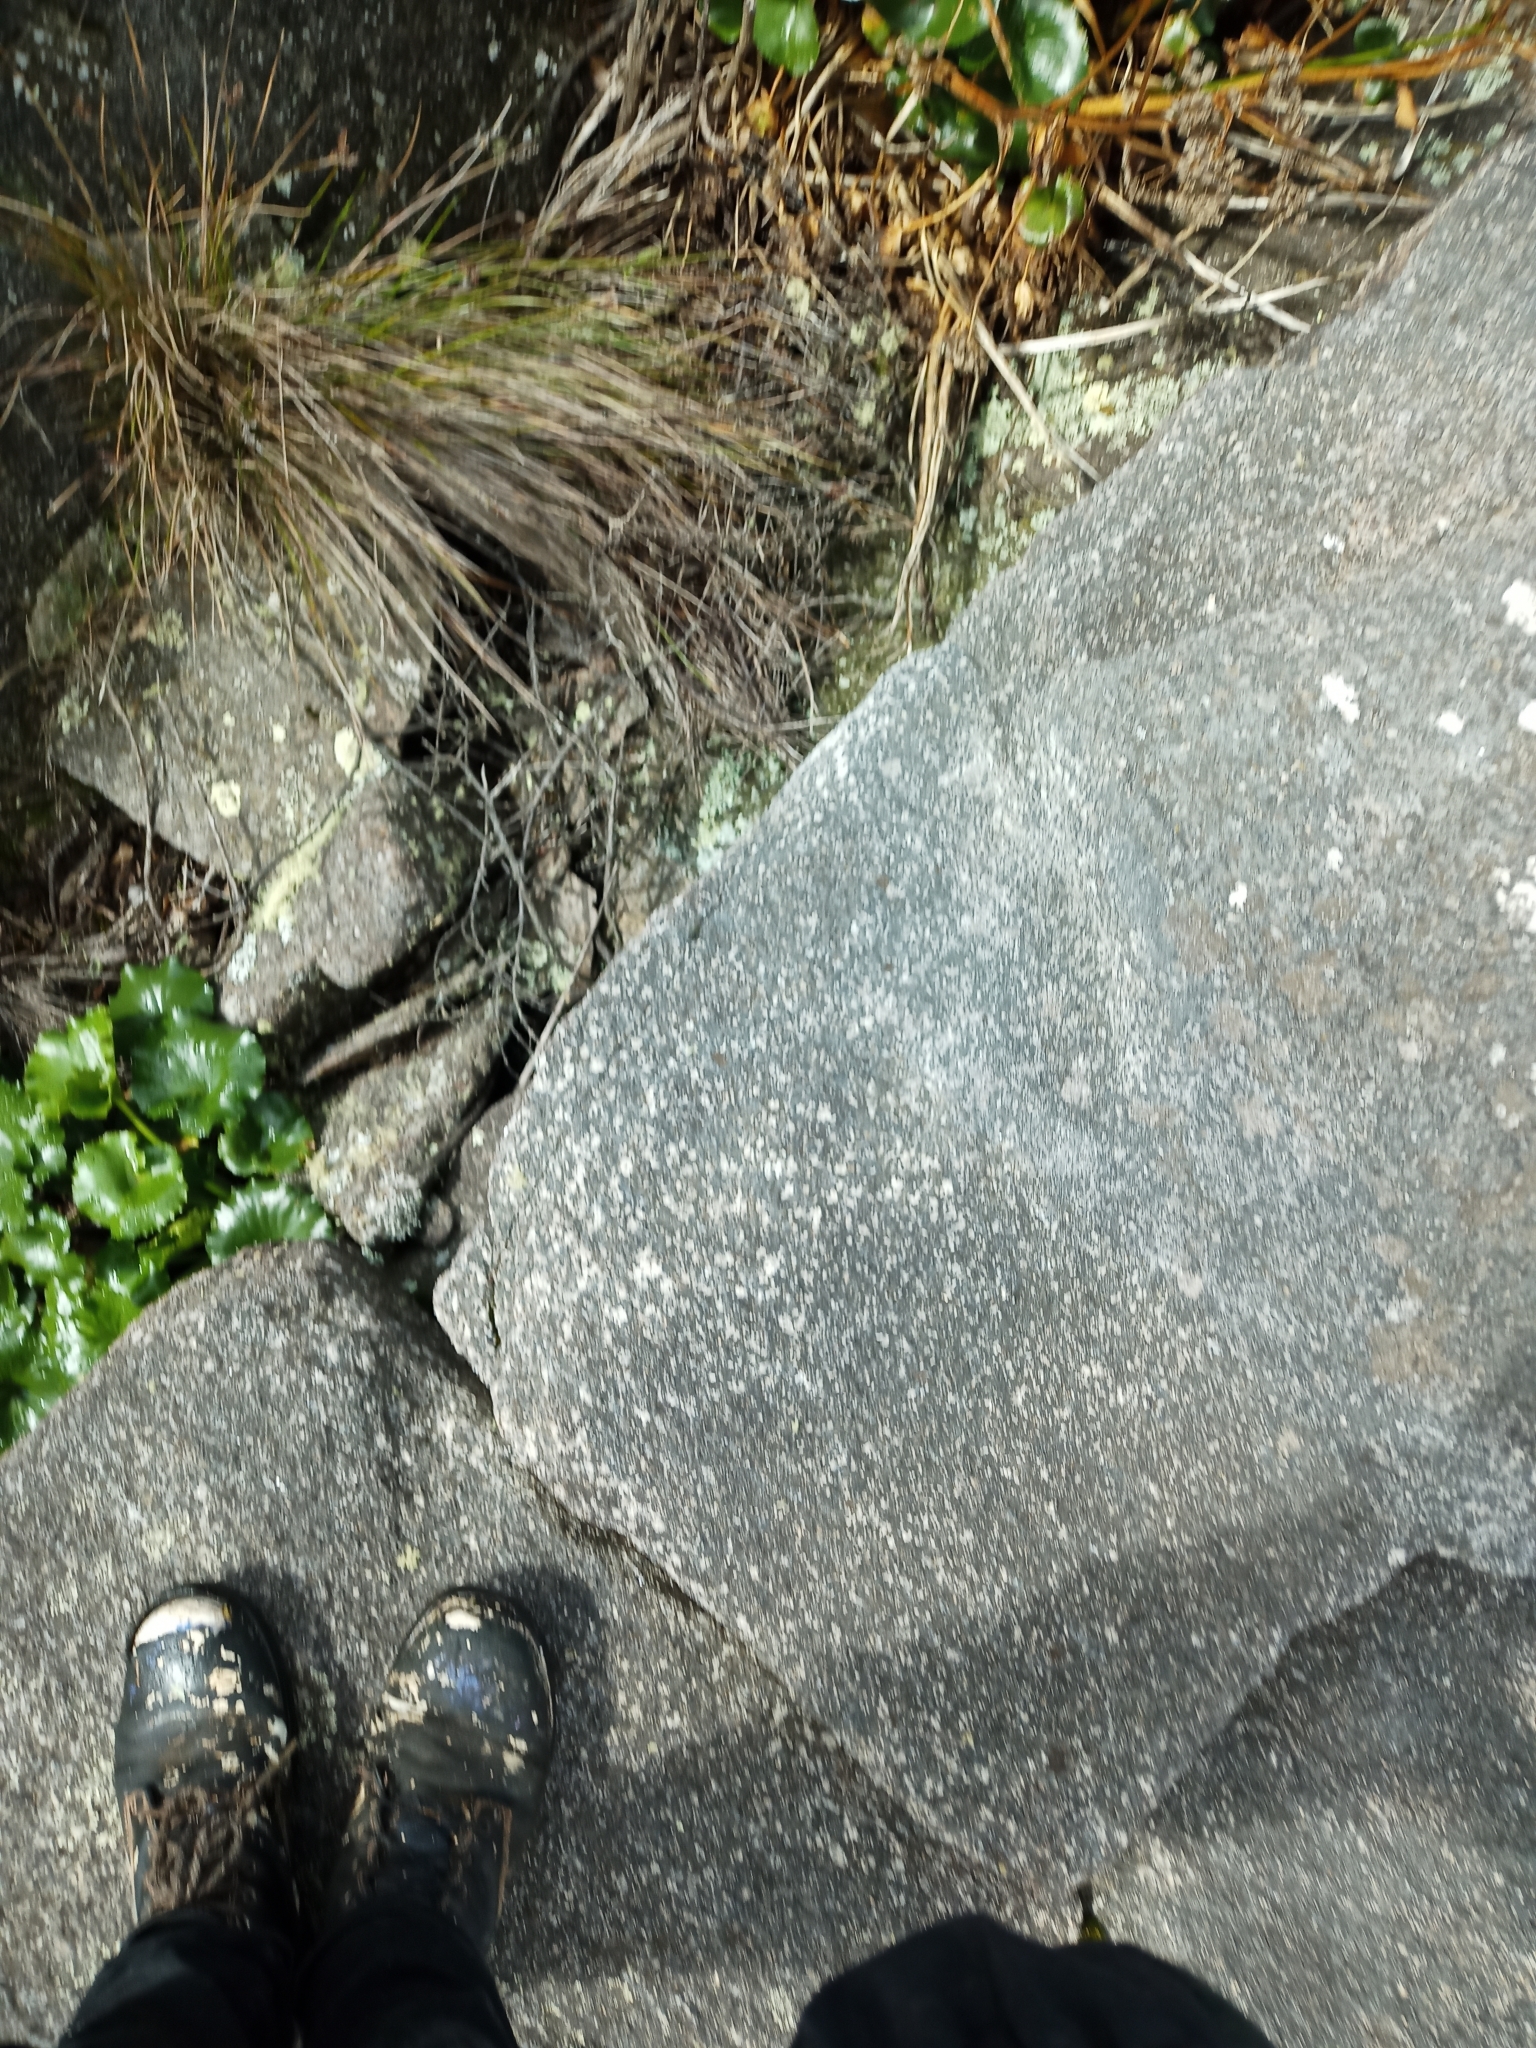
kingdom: Plantae
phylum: Tracheophyta
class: Magnoliopsida
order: Asterales
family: Menyanthaceae
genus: Ornduffia
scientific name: Ornduffia calthifolia
